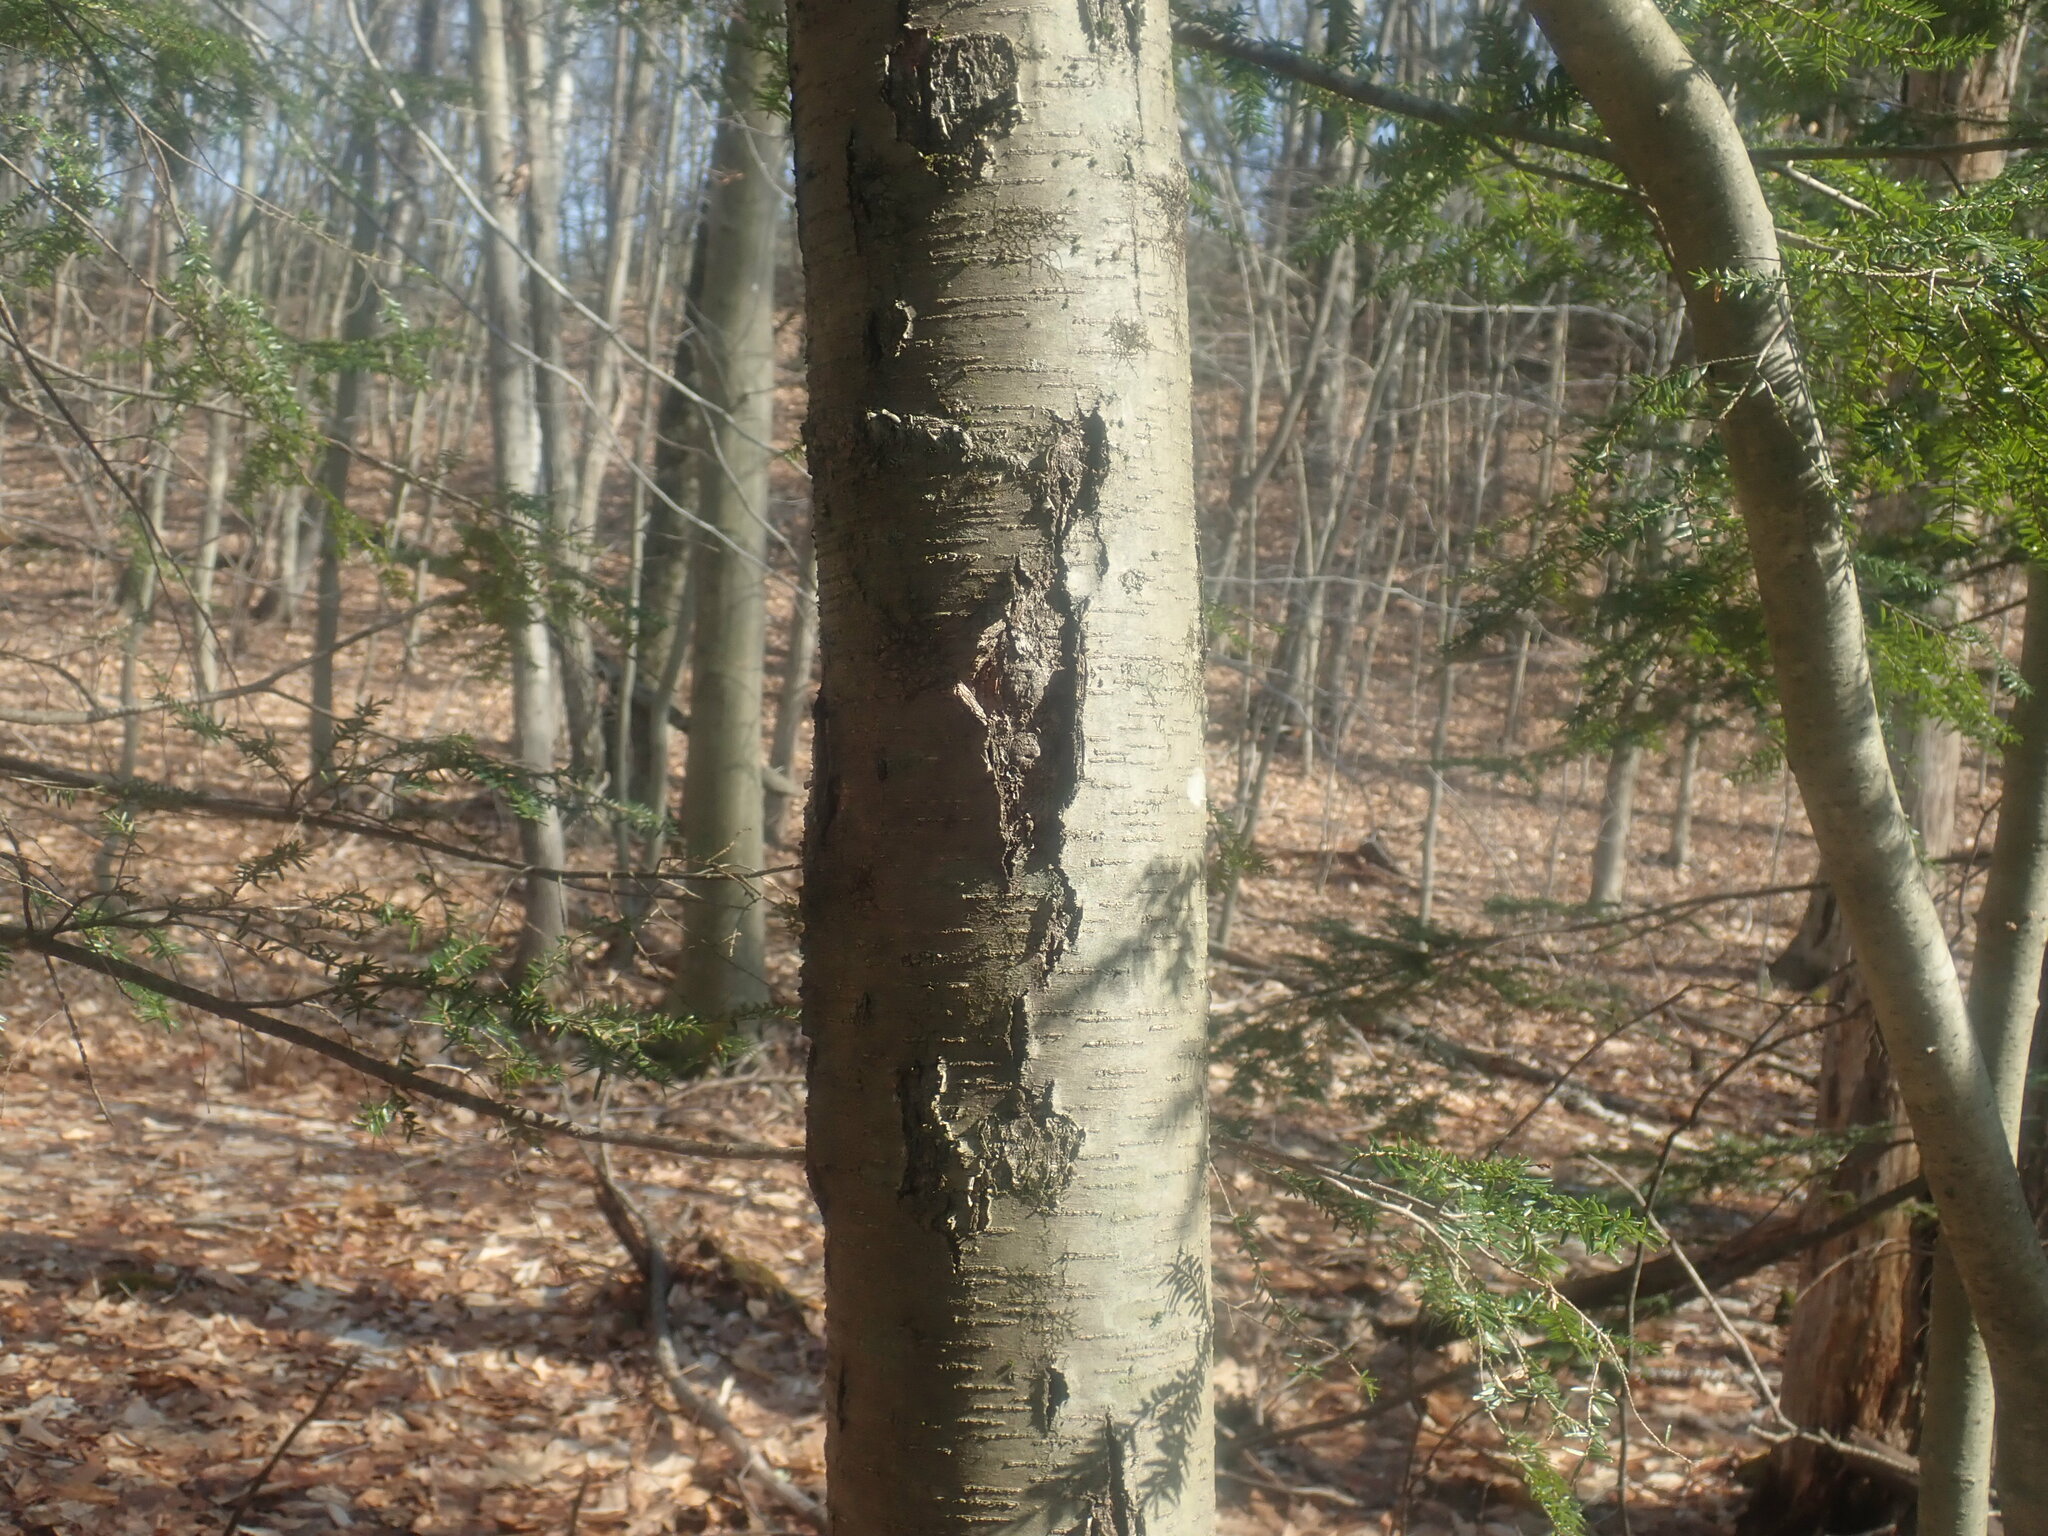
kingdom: Plantae
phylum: Tracheophyta
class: Magnoliopsida
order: Fagales
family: Betulaceae
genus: Betula
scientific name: Betula lenta
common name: Black birch
